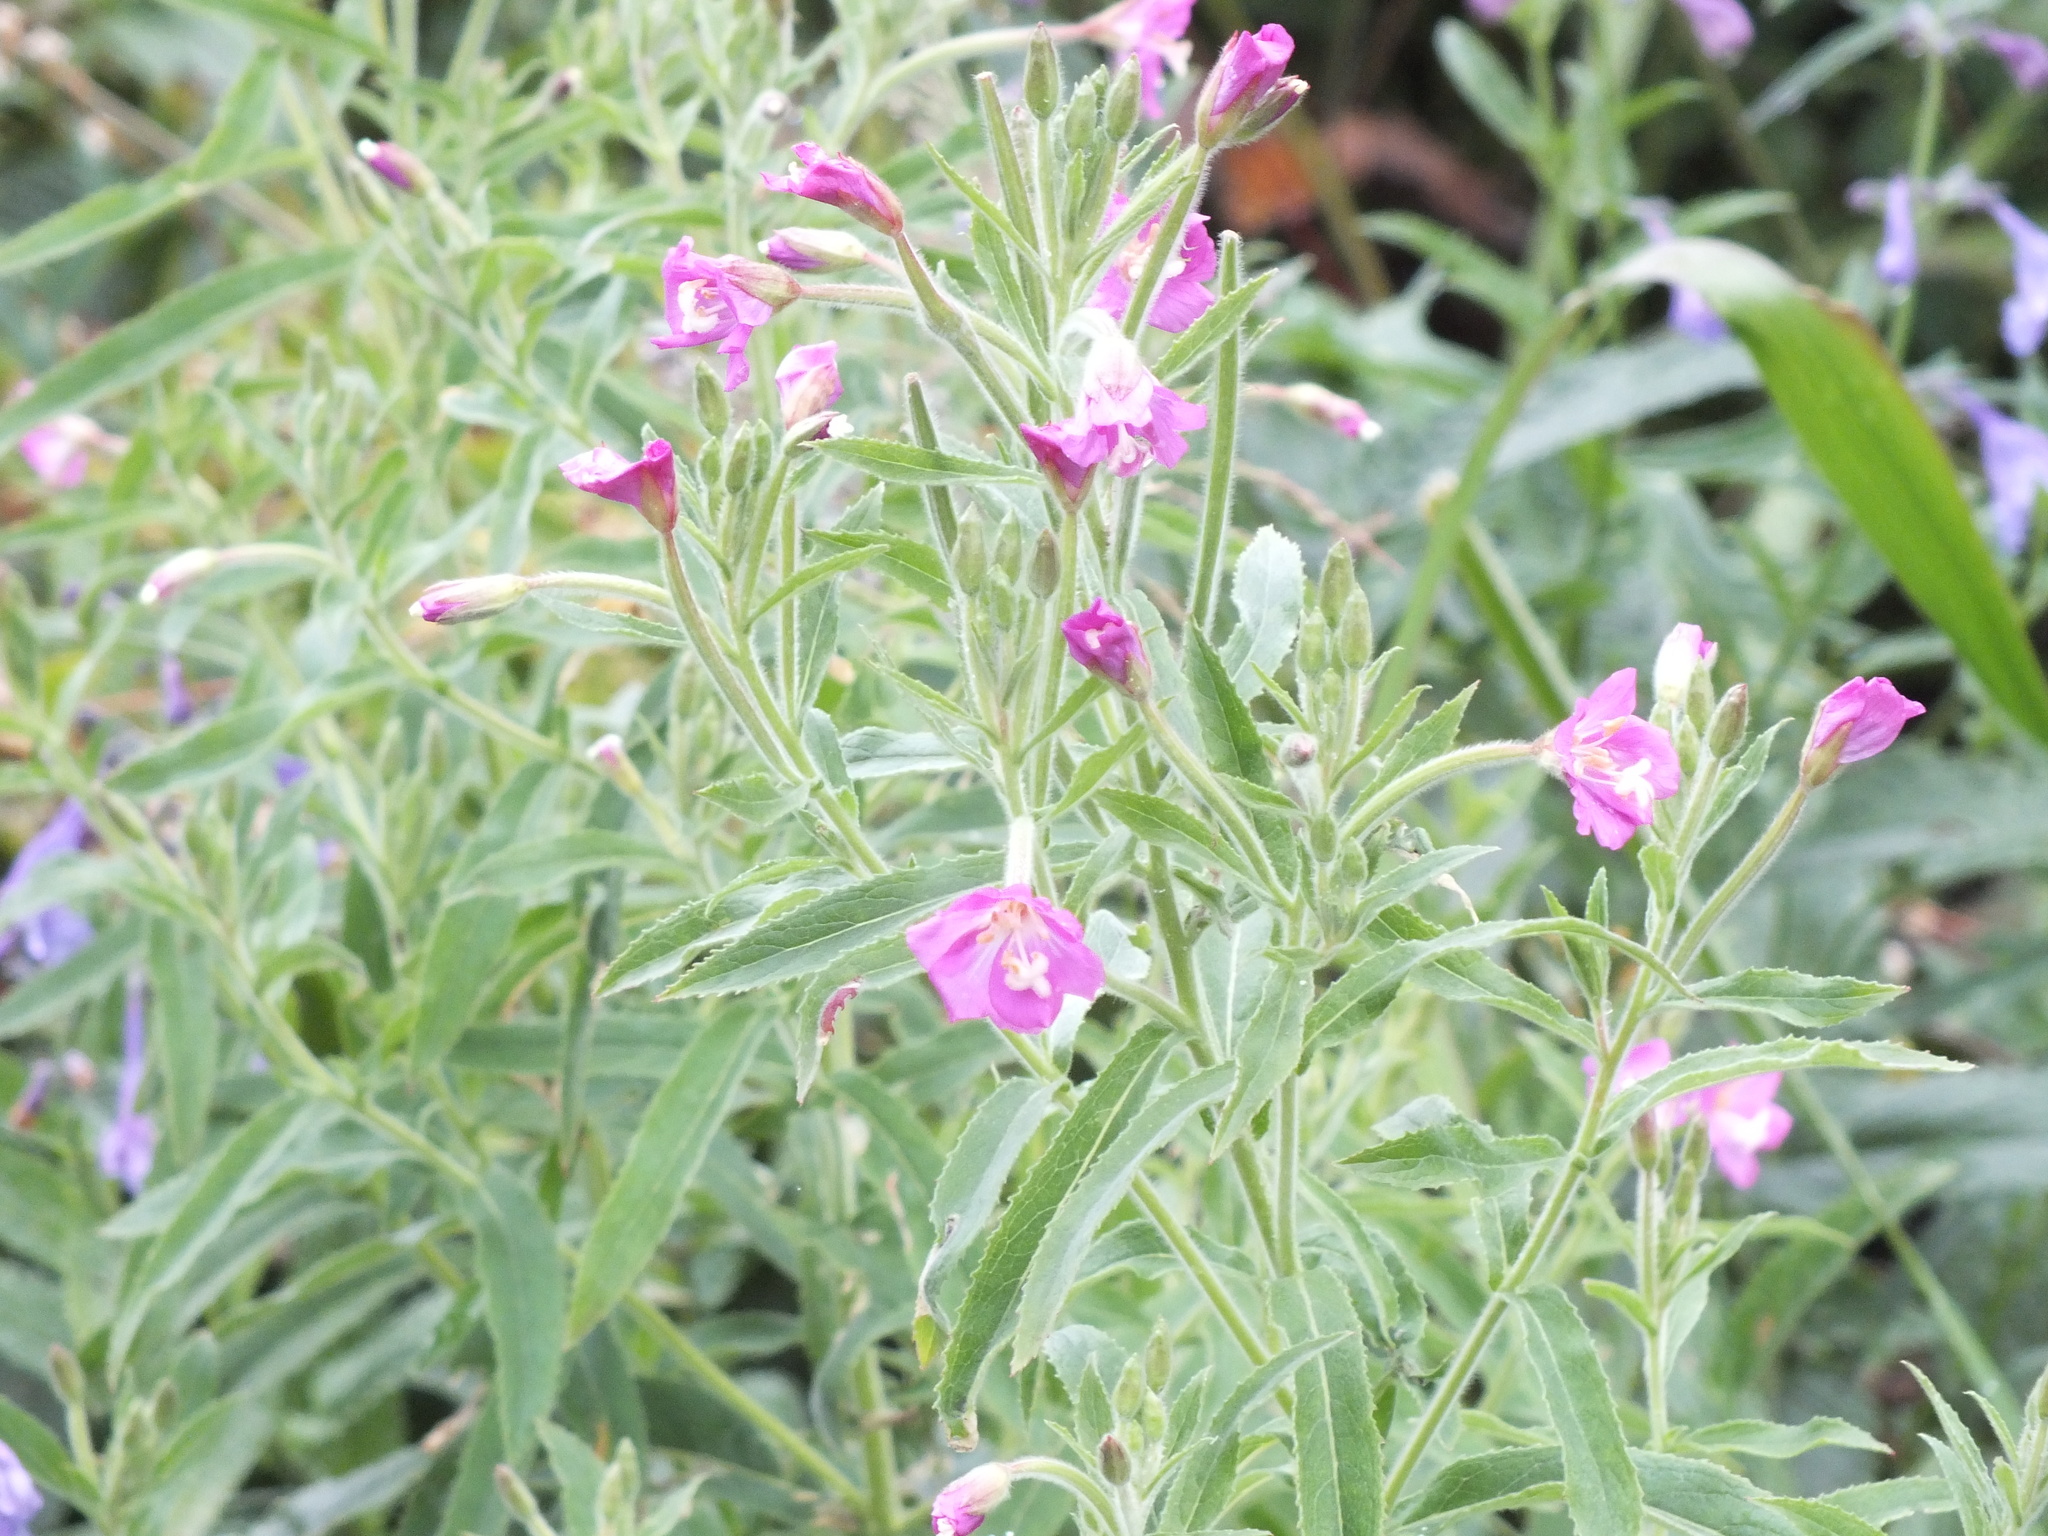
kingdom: Plantae
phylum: Tracheophyta
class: Magnoliopsida
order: Myrtales
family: Onagraceae
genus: Epilobium
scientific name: Epilobium hirsutum
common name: Great willowherb
